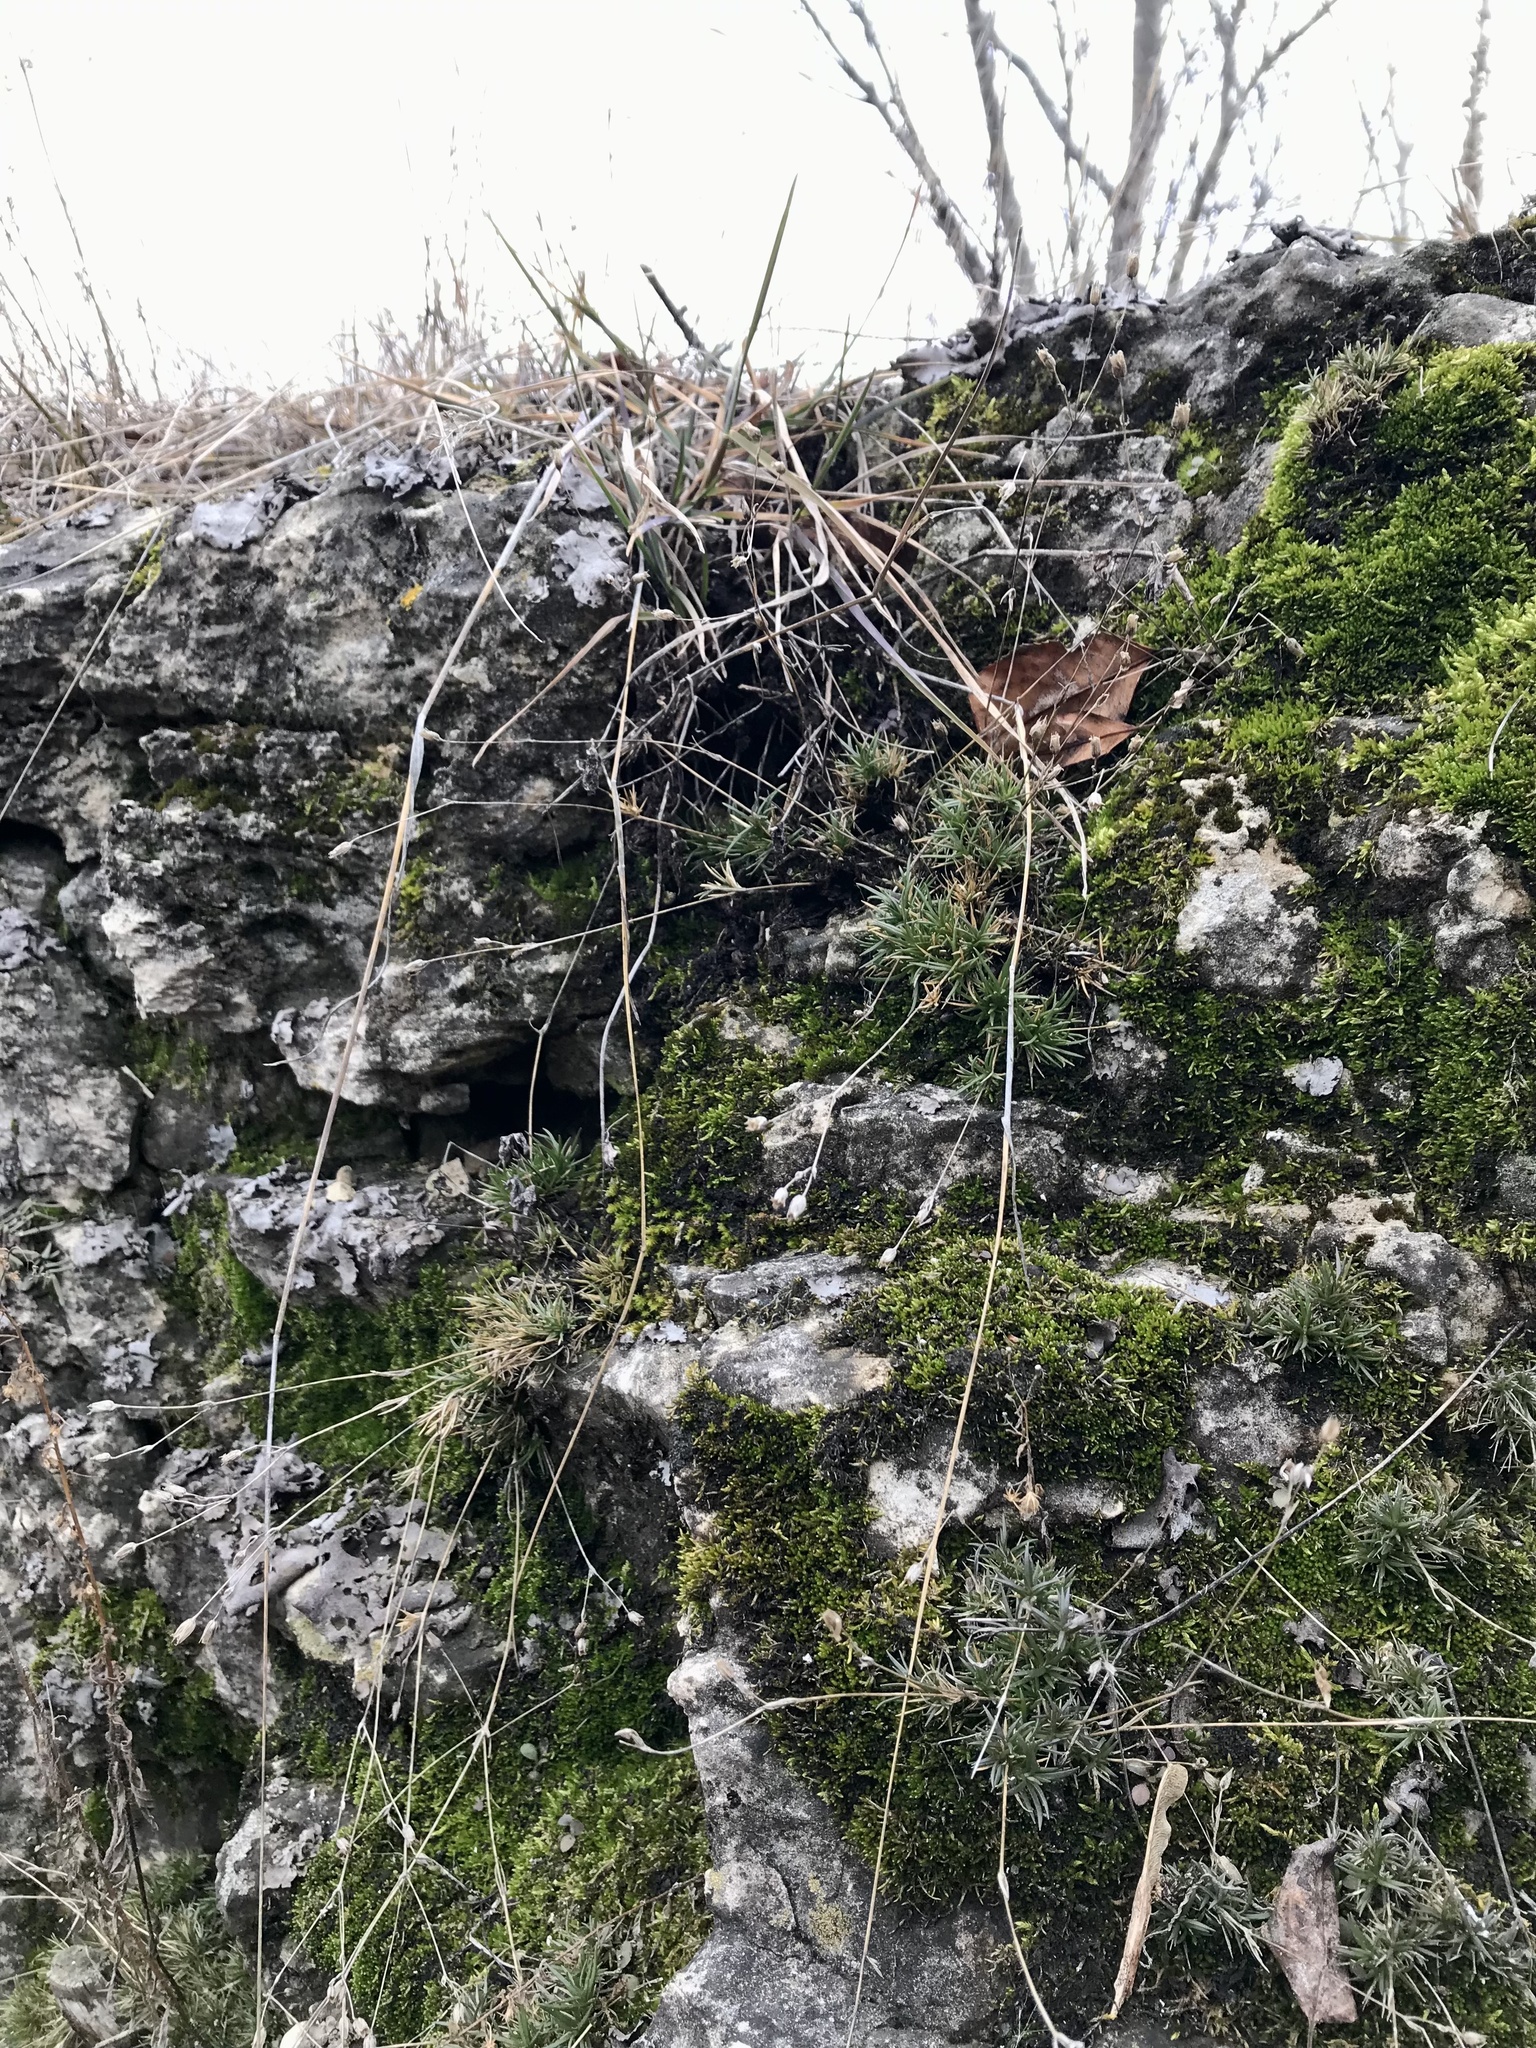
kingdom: Plantae
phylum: Tracheophyta
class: Magnoliopsida
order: Caryophyllales
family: Caryophyllaceae
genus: Sabulina
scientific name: Sabulina dawsonensis
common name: Dawson's cockle
